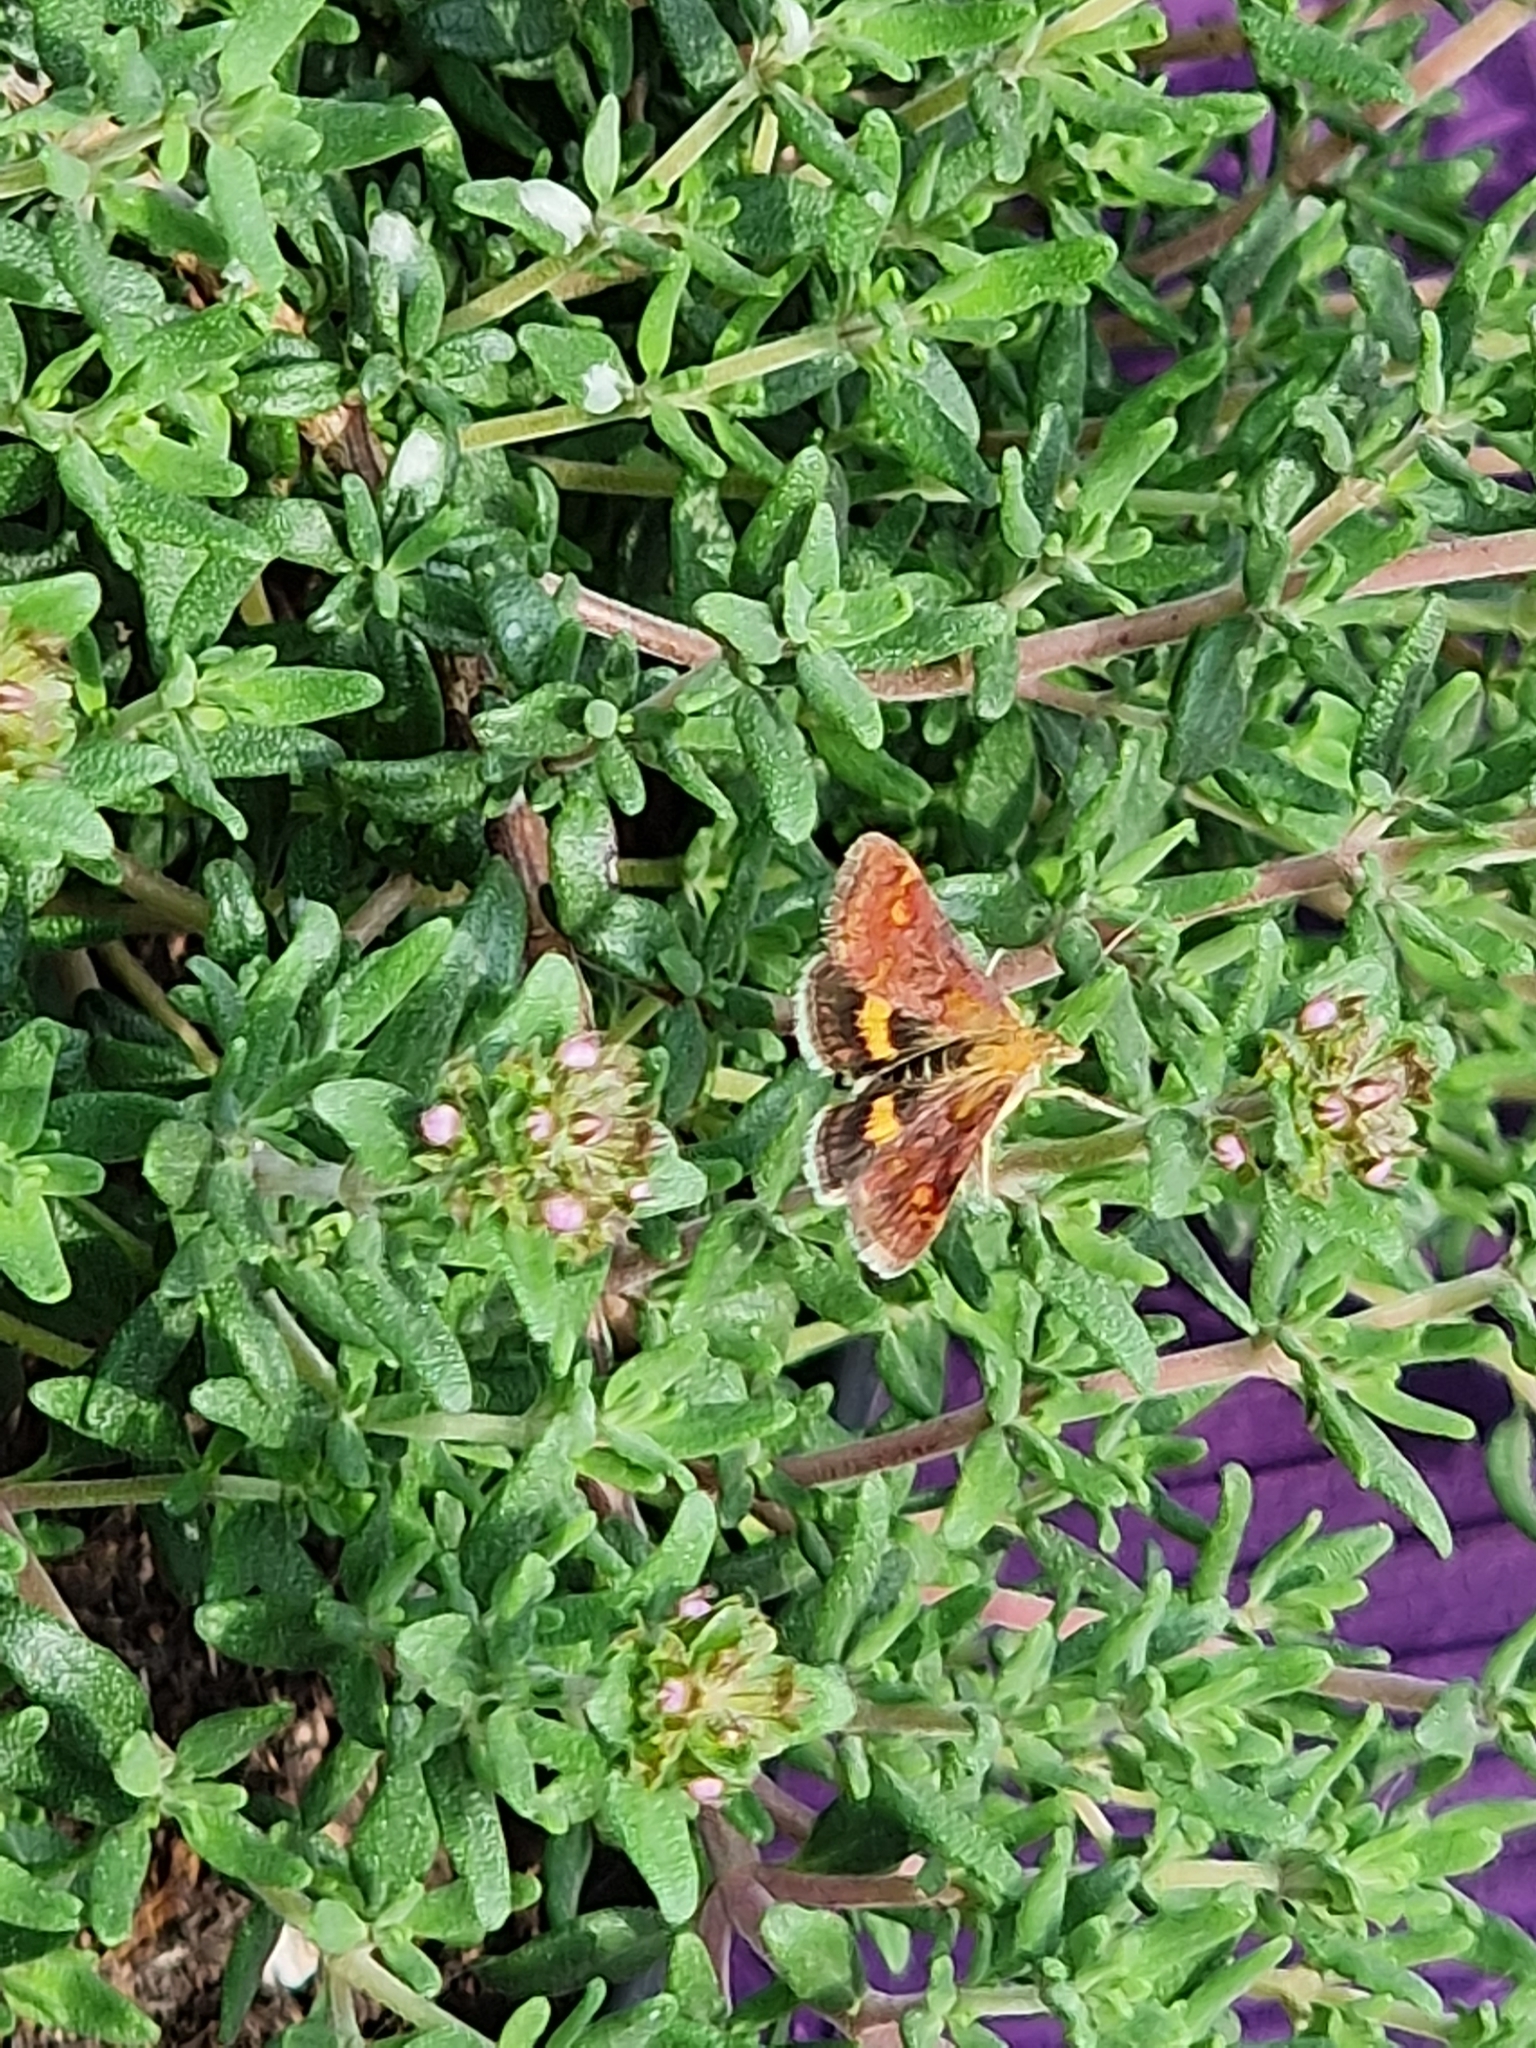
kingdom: Animalia
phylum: Arthropoda
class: Insecta
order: Lepidoptera
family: Crambidae
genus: Pyrausta
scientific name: Pyrausta aurata
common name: Small purple & gold
